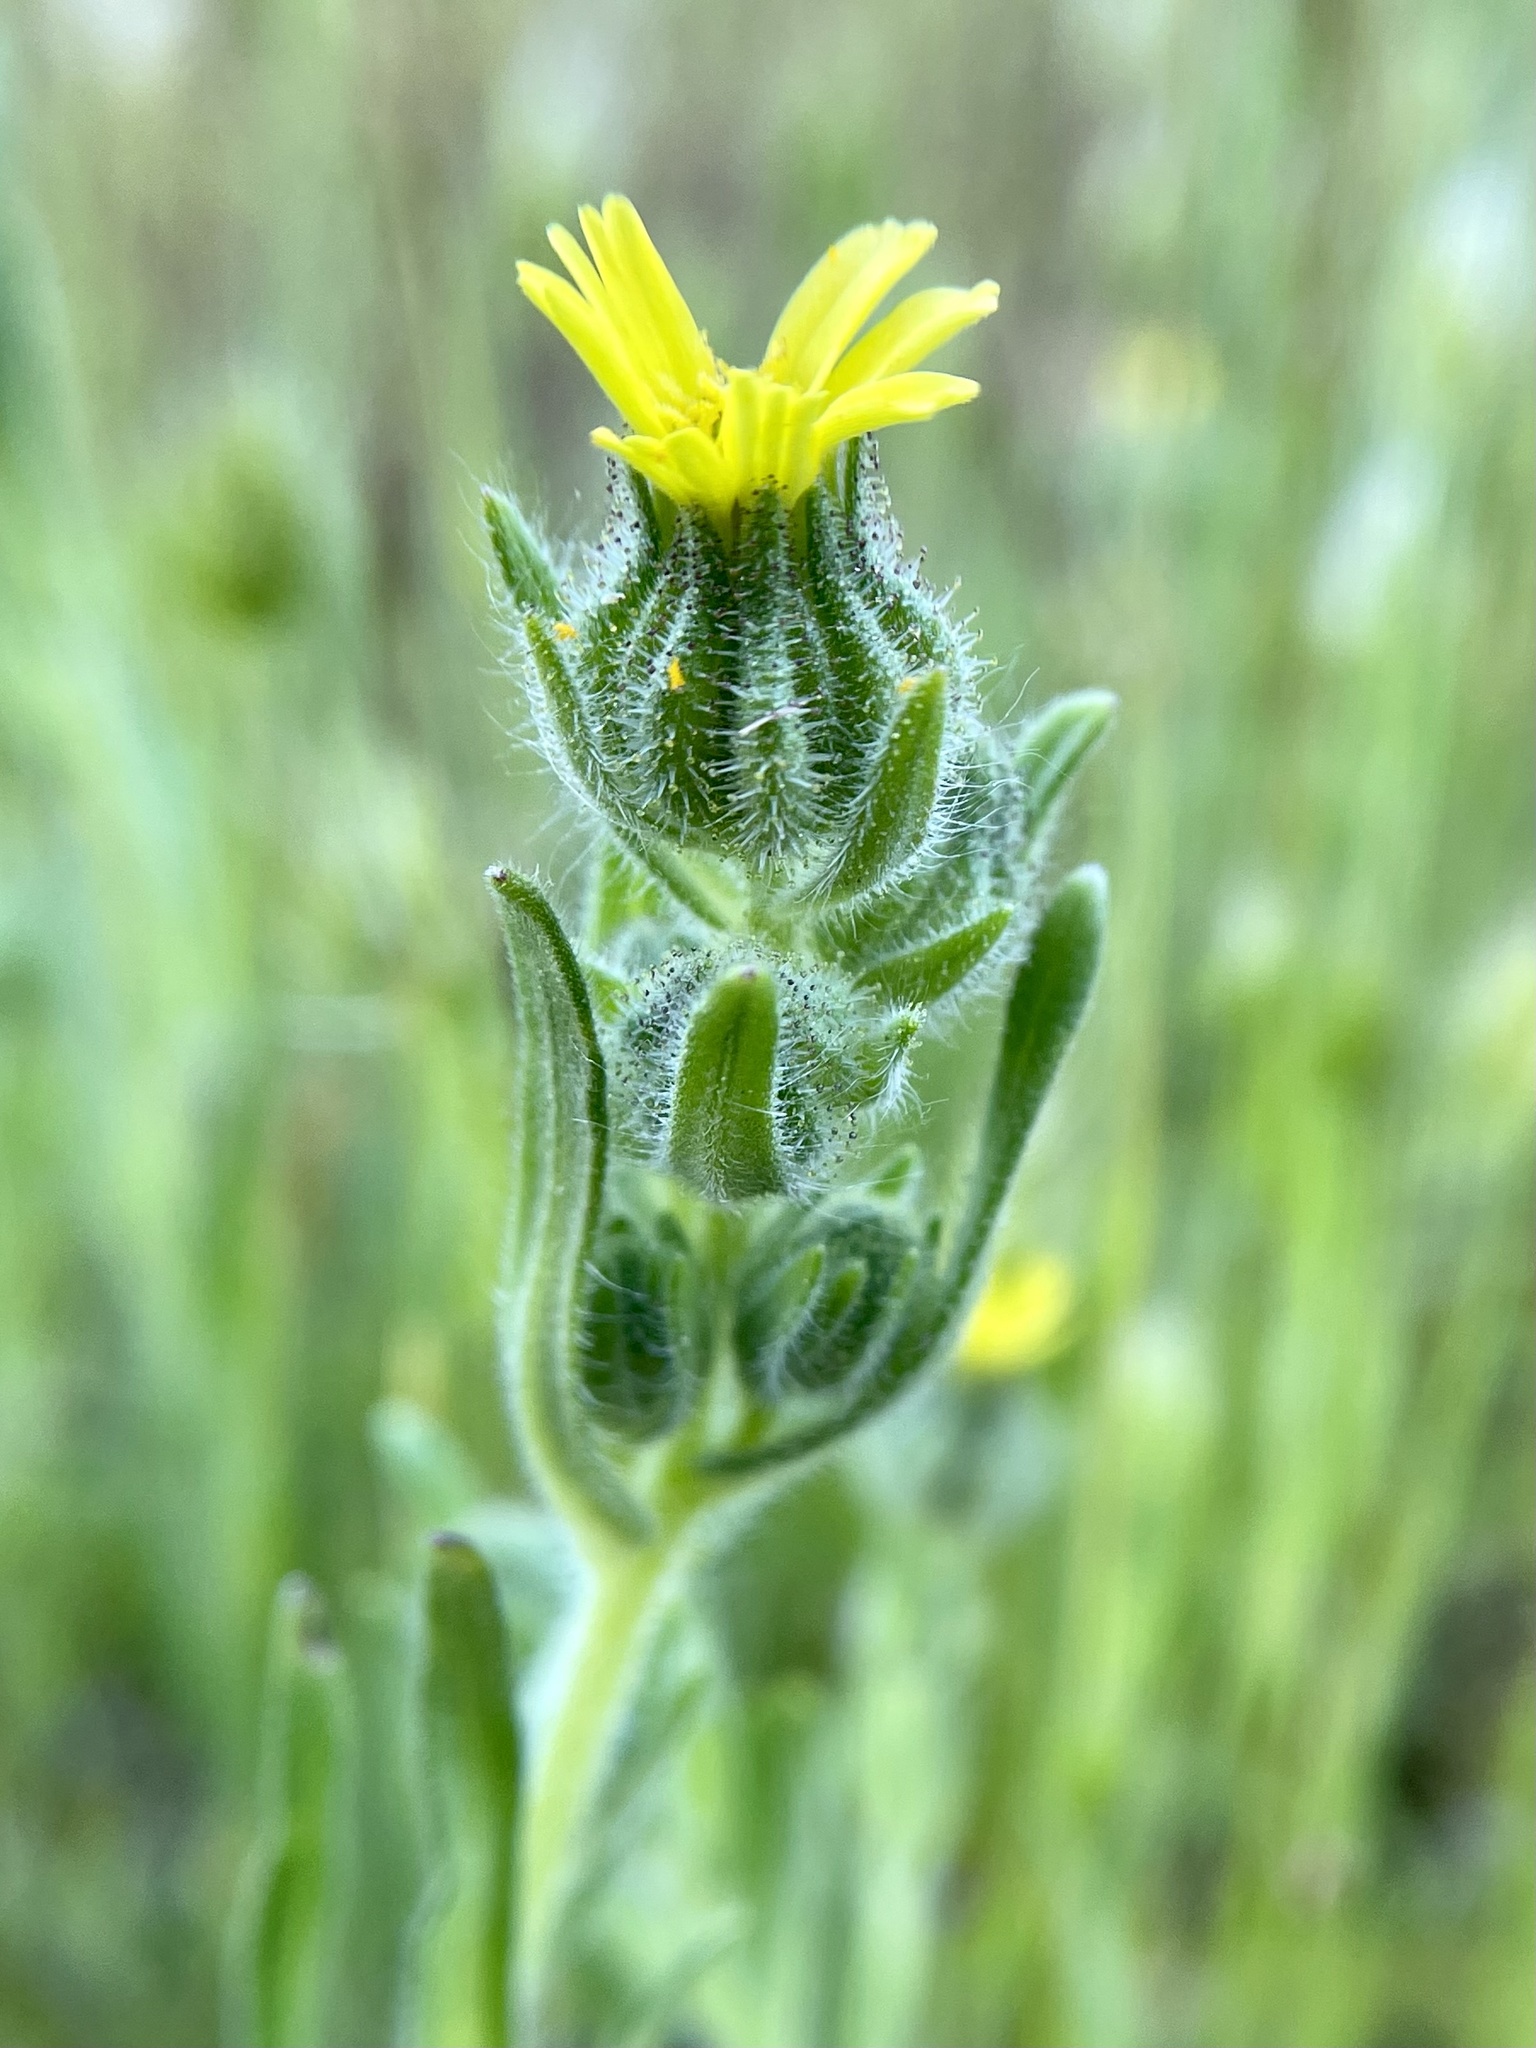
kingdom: Plantae
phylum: Tracheophyta
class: Magnoliopsida
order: Asterales
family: Asteraceae
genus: Madia
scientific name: Madia sativa
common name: Coast tarweed
